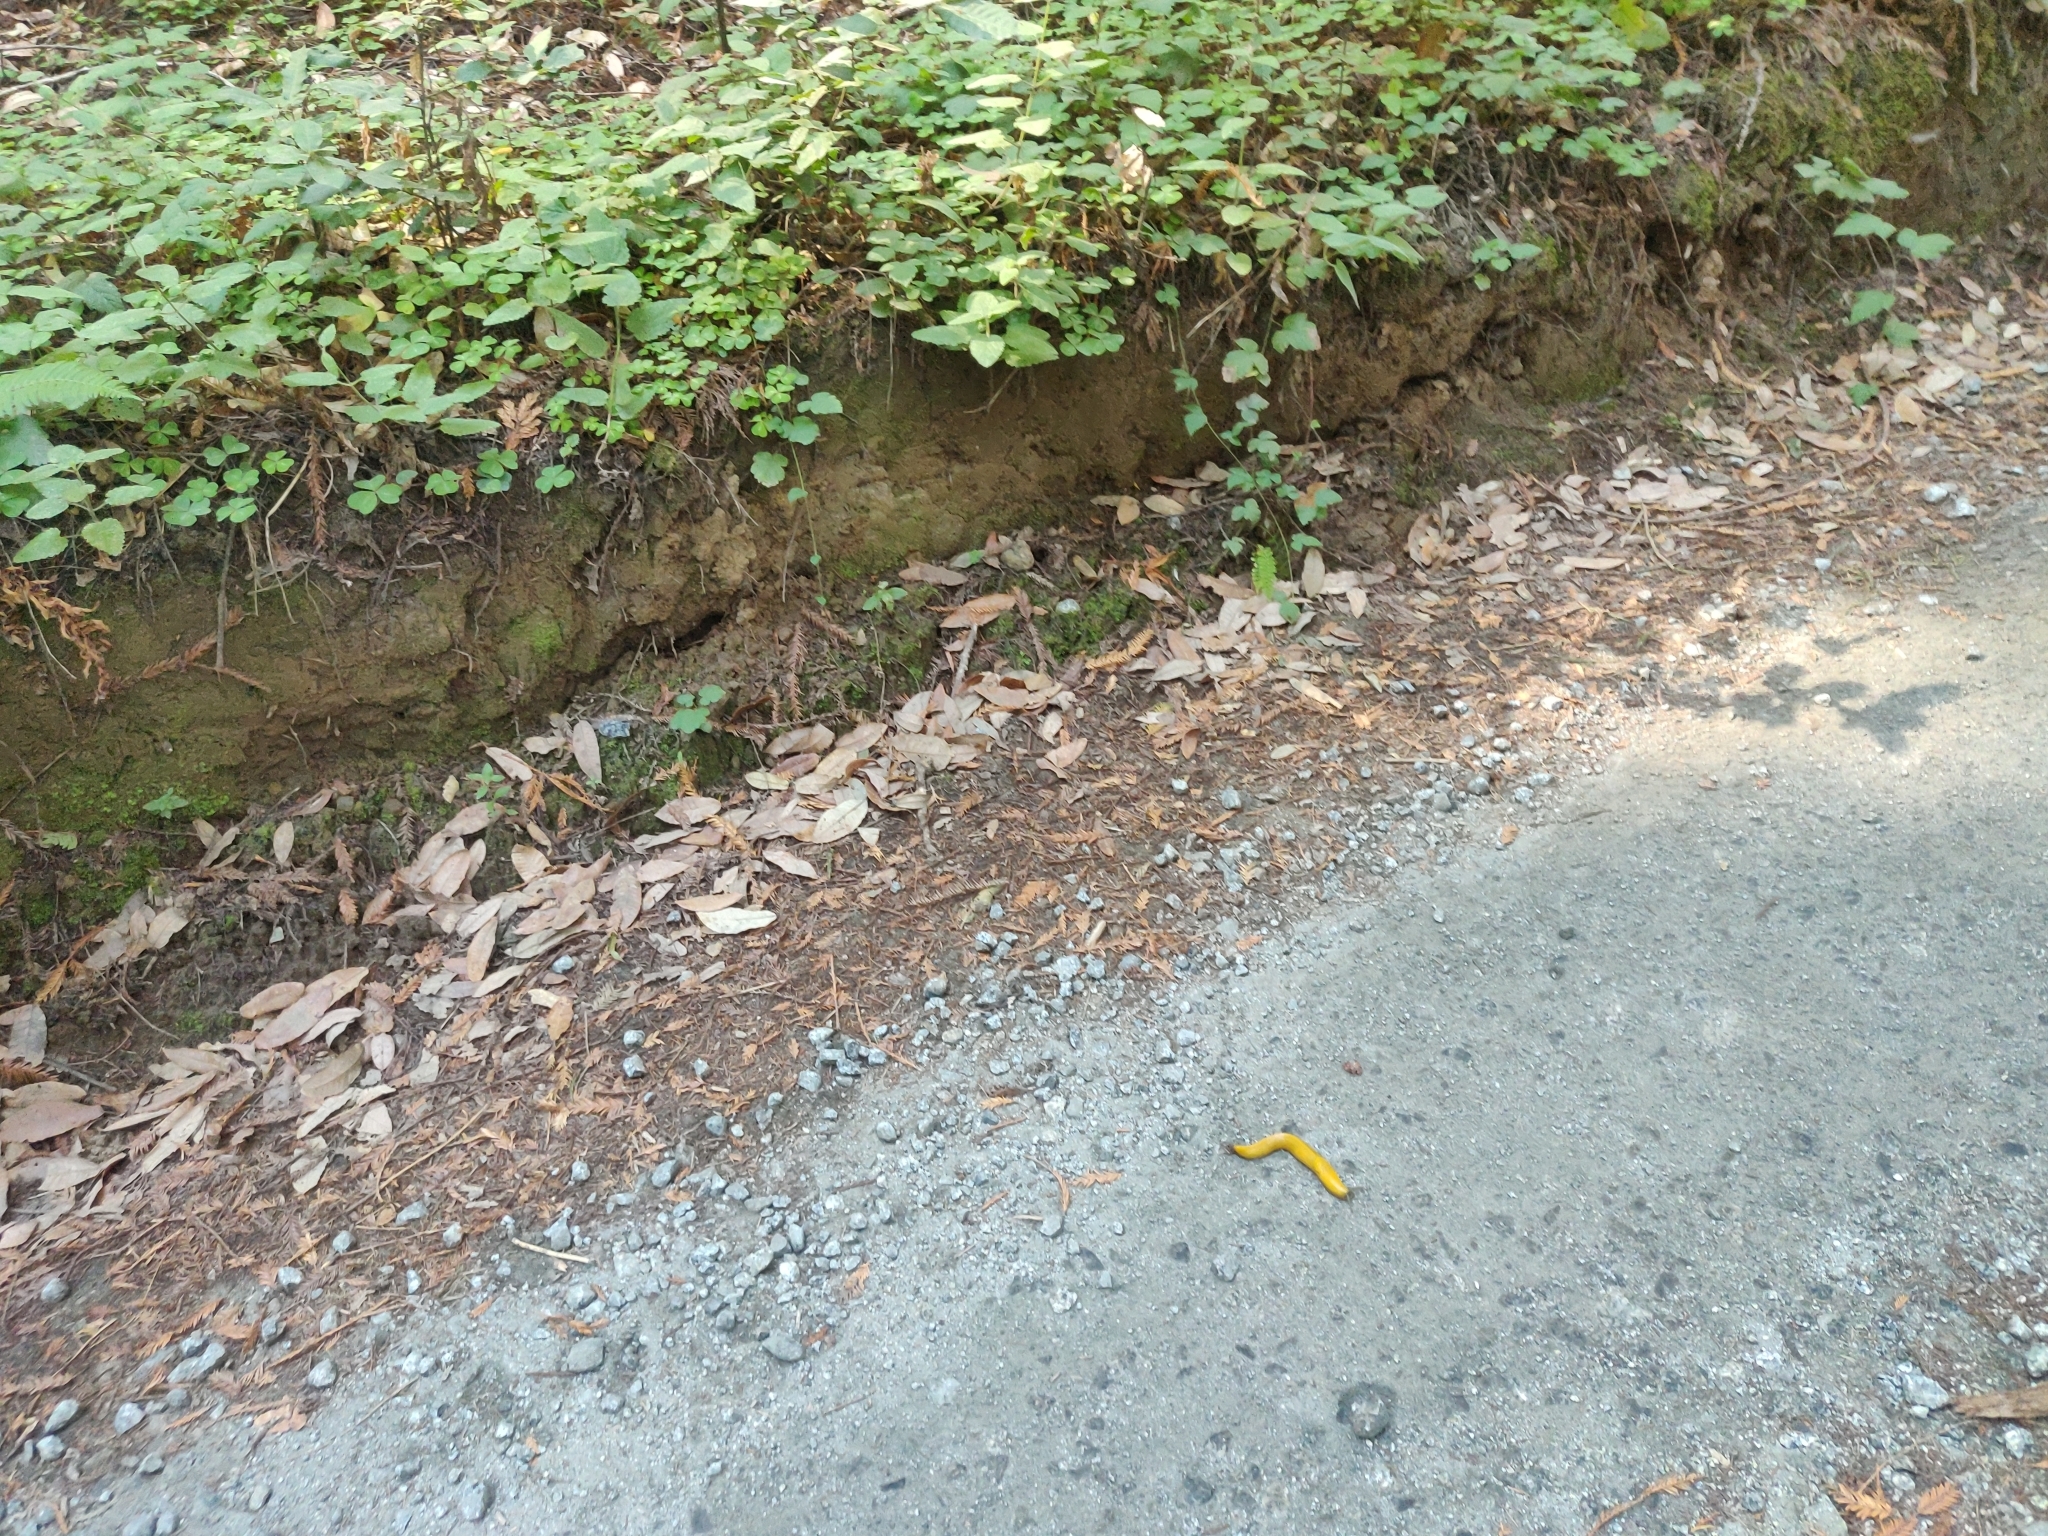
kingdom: Animalia
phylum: Mollusca
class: Gastropoda
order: Stylommatophora
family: Ariolimacidae
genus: Ariolimax
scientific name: Ariolimax californicus
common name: California banana slug
